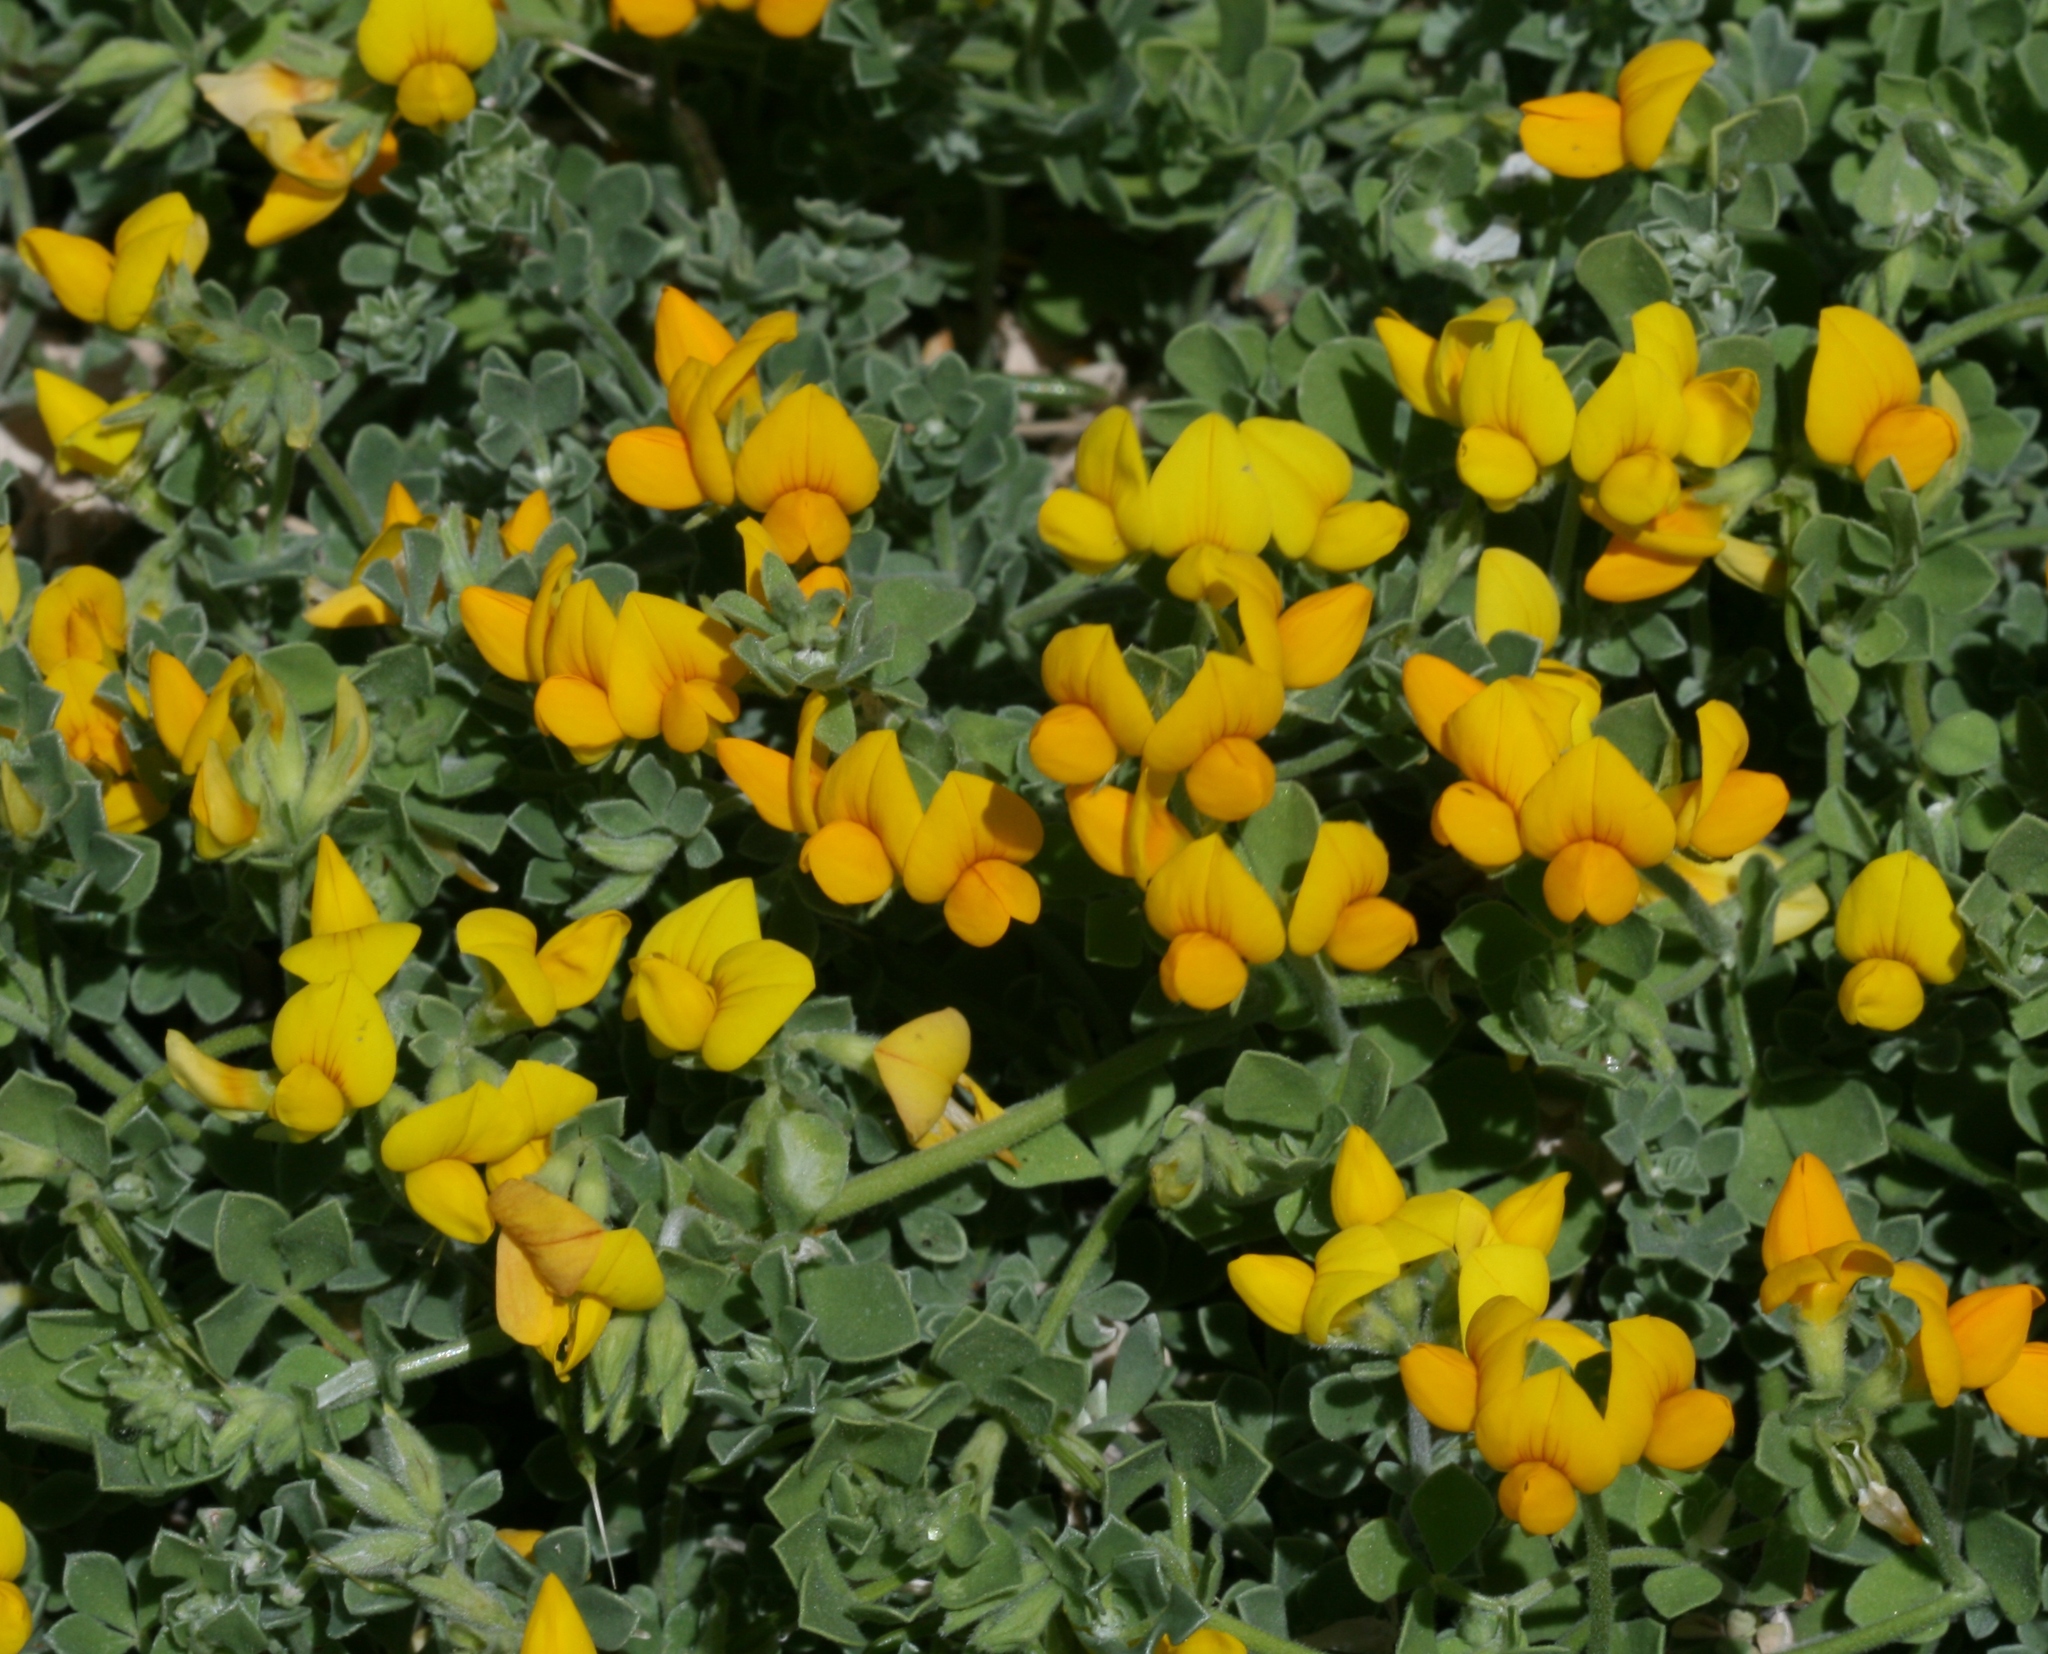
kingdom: Plantae
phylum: Tracheophyta
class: Magnoliopsida
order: Fabales
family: Fabaceae
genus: Lotus
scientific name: Lotus lancerottensis
